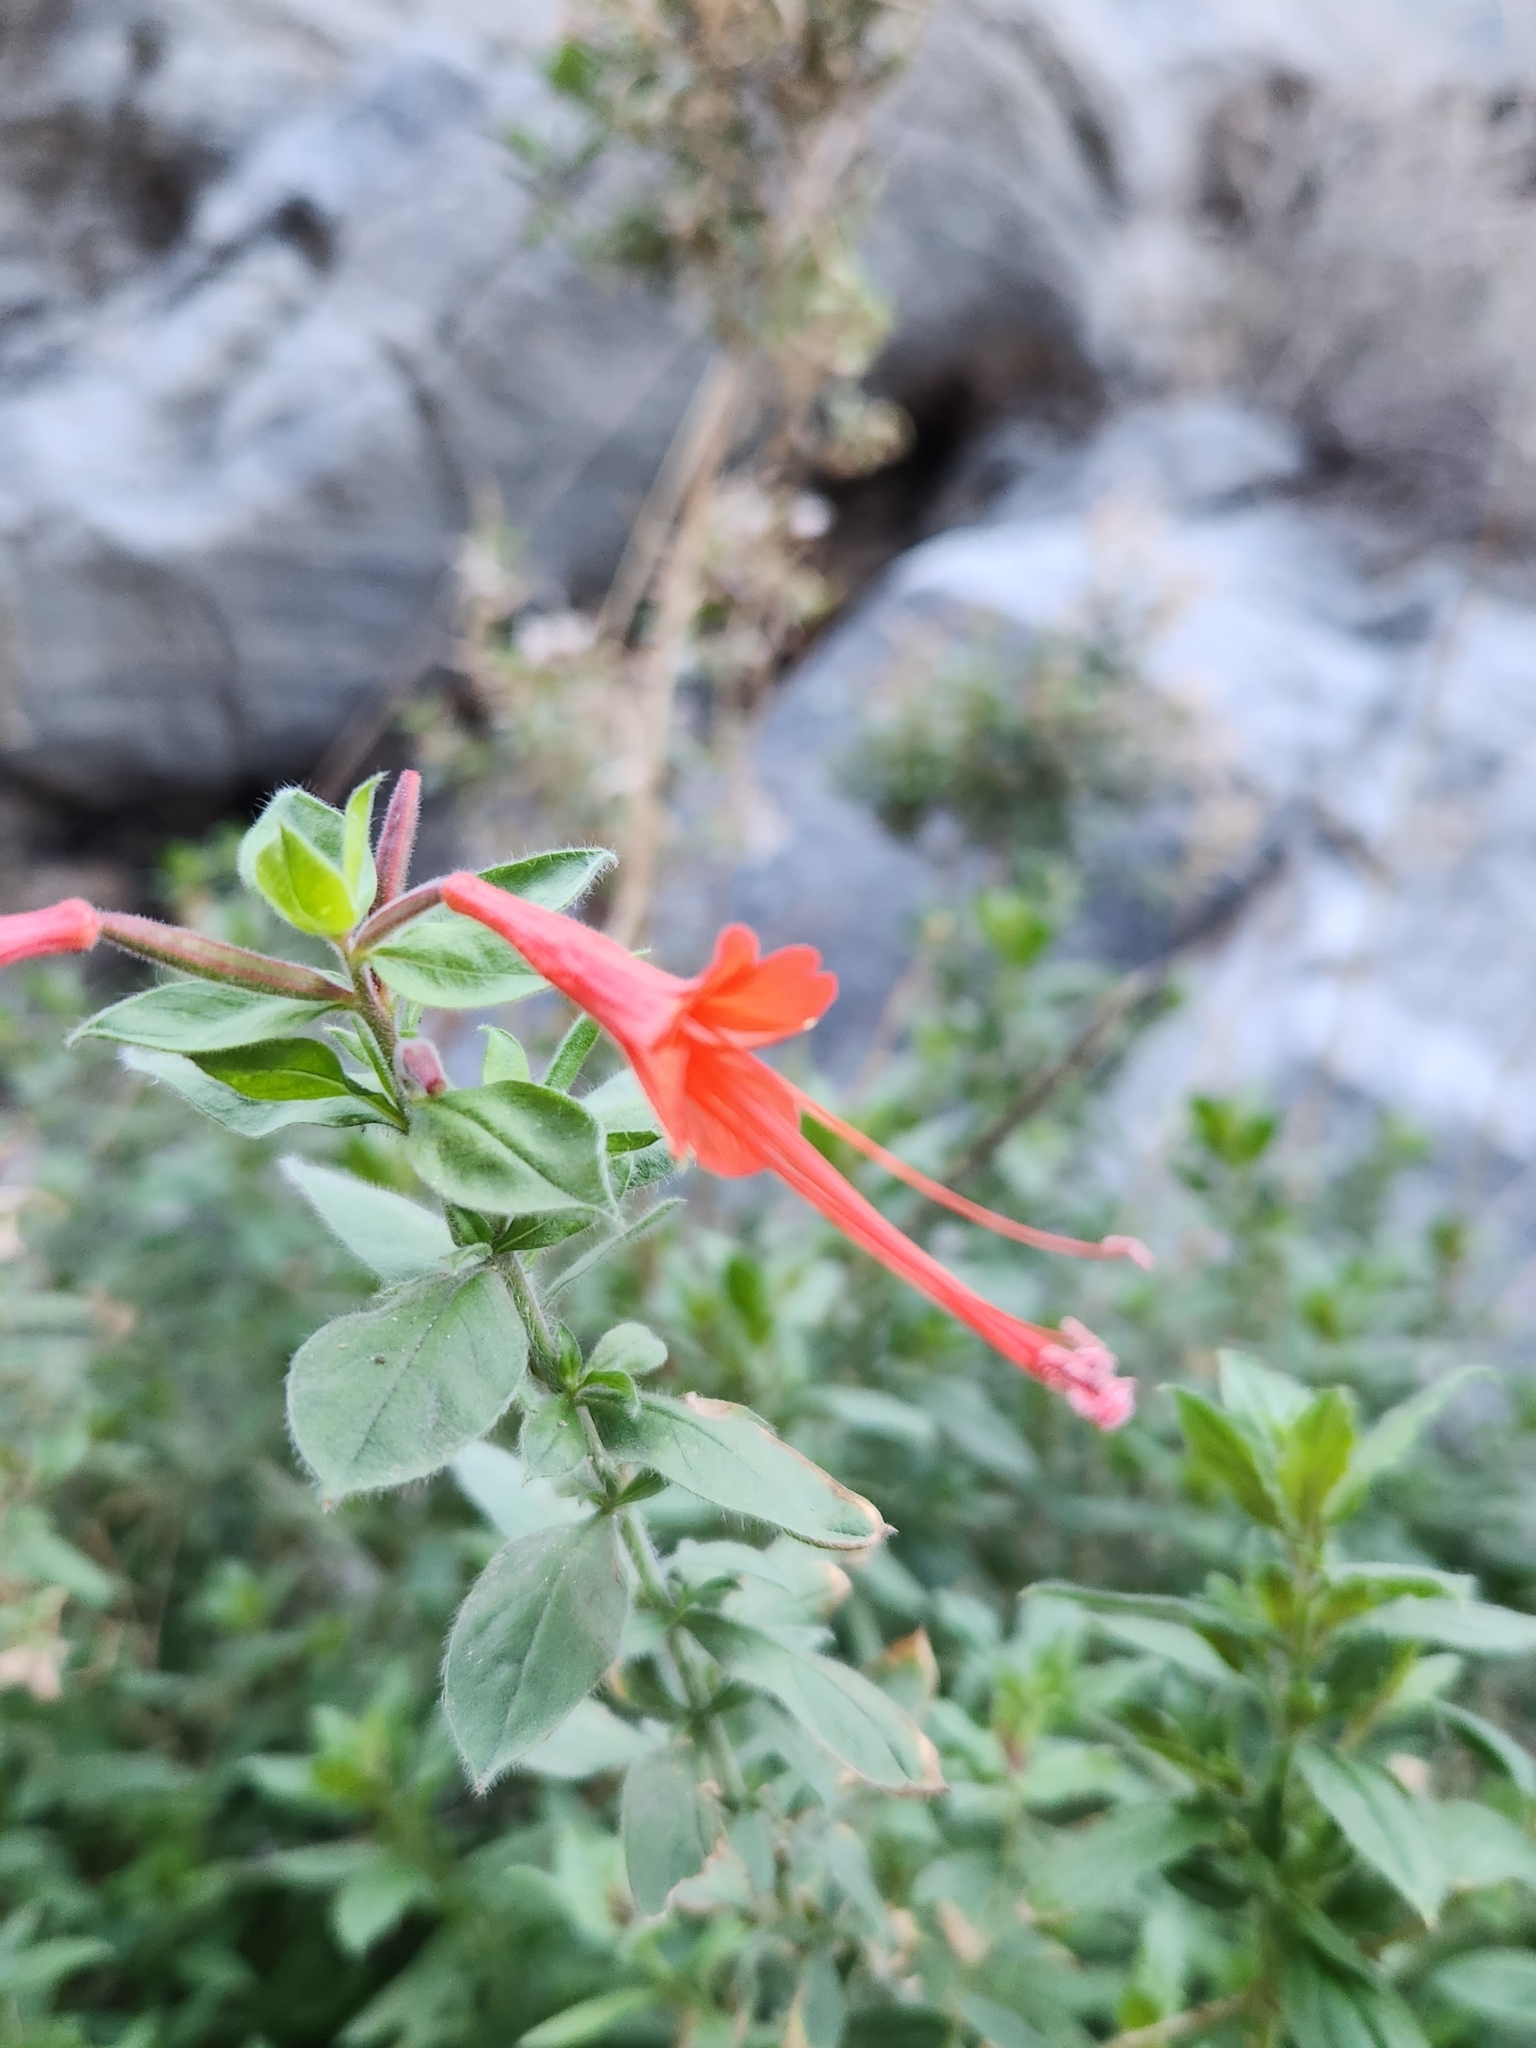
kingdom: Plantae
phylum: Tracheophyta
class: Magnoliopsida
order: Myrtales
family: Onagraceae
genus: Epilobium
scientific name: Epilobium canum
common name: California-fuchsia
